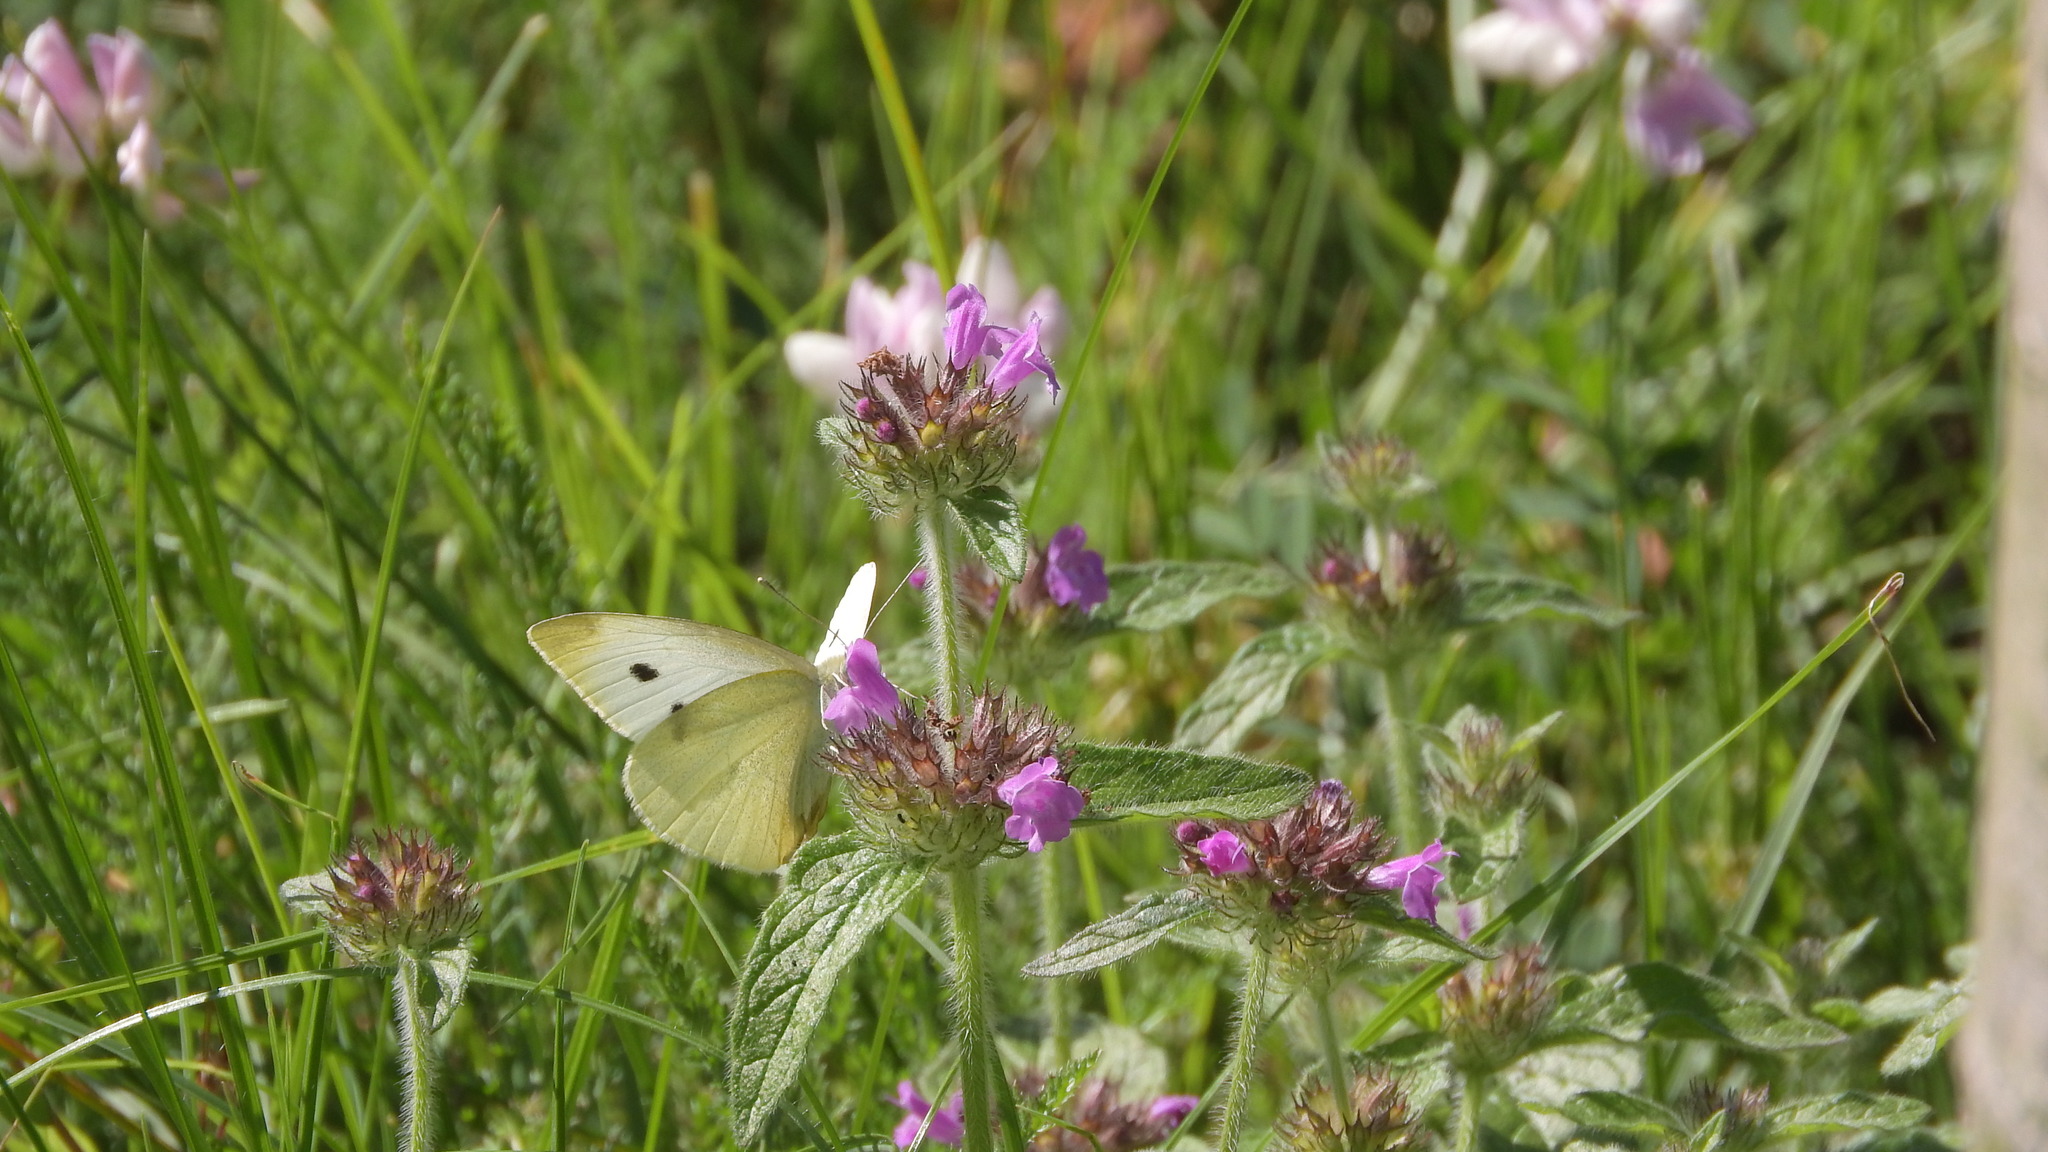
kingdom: Animalia
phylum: Arthropoda
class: Insecta
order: Lepidoptera
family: Pieridae
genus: Pieris
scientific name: Pieris rapae
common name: Small white
